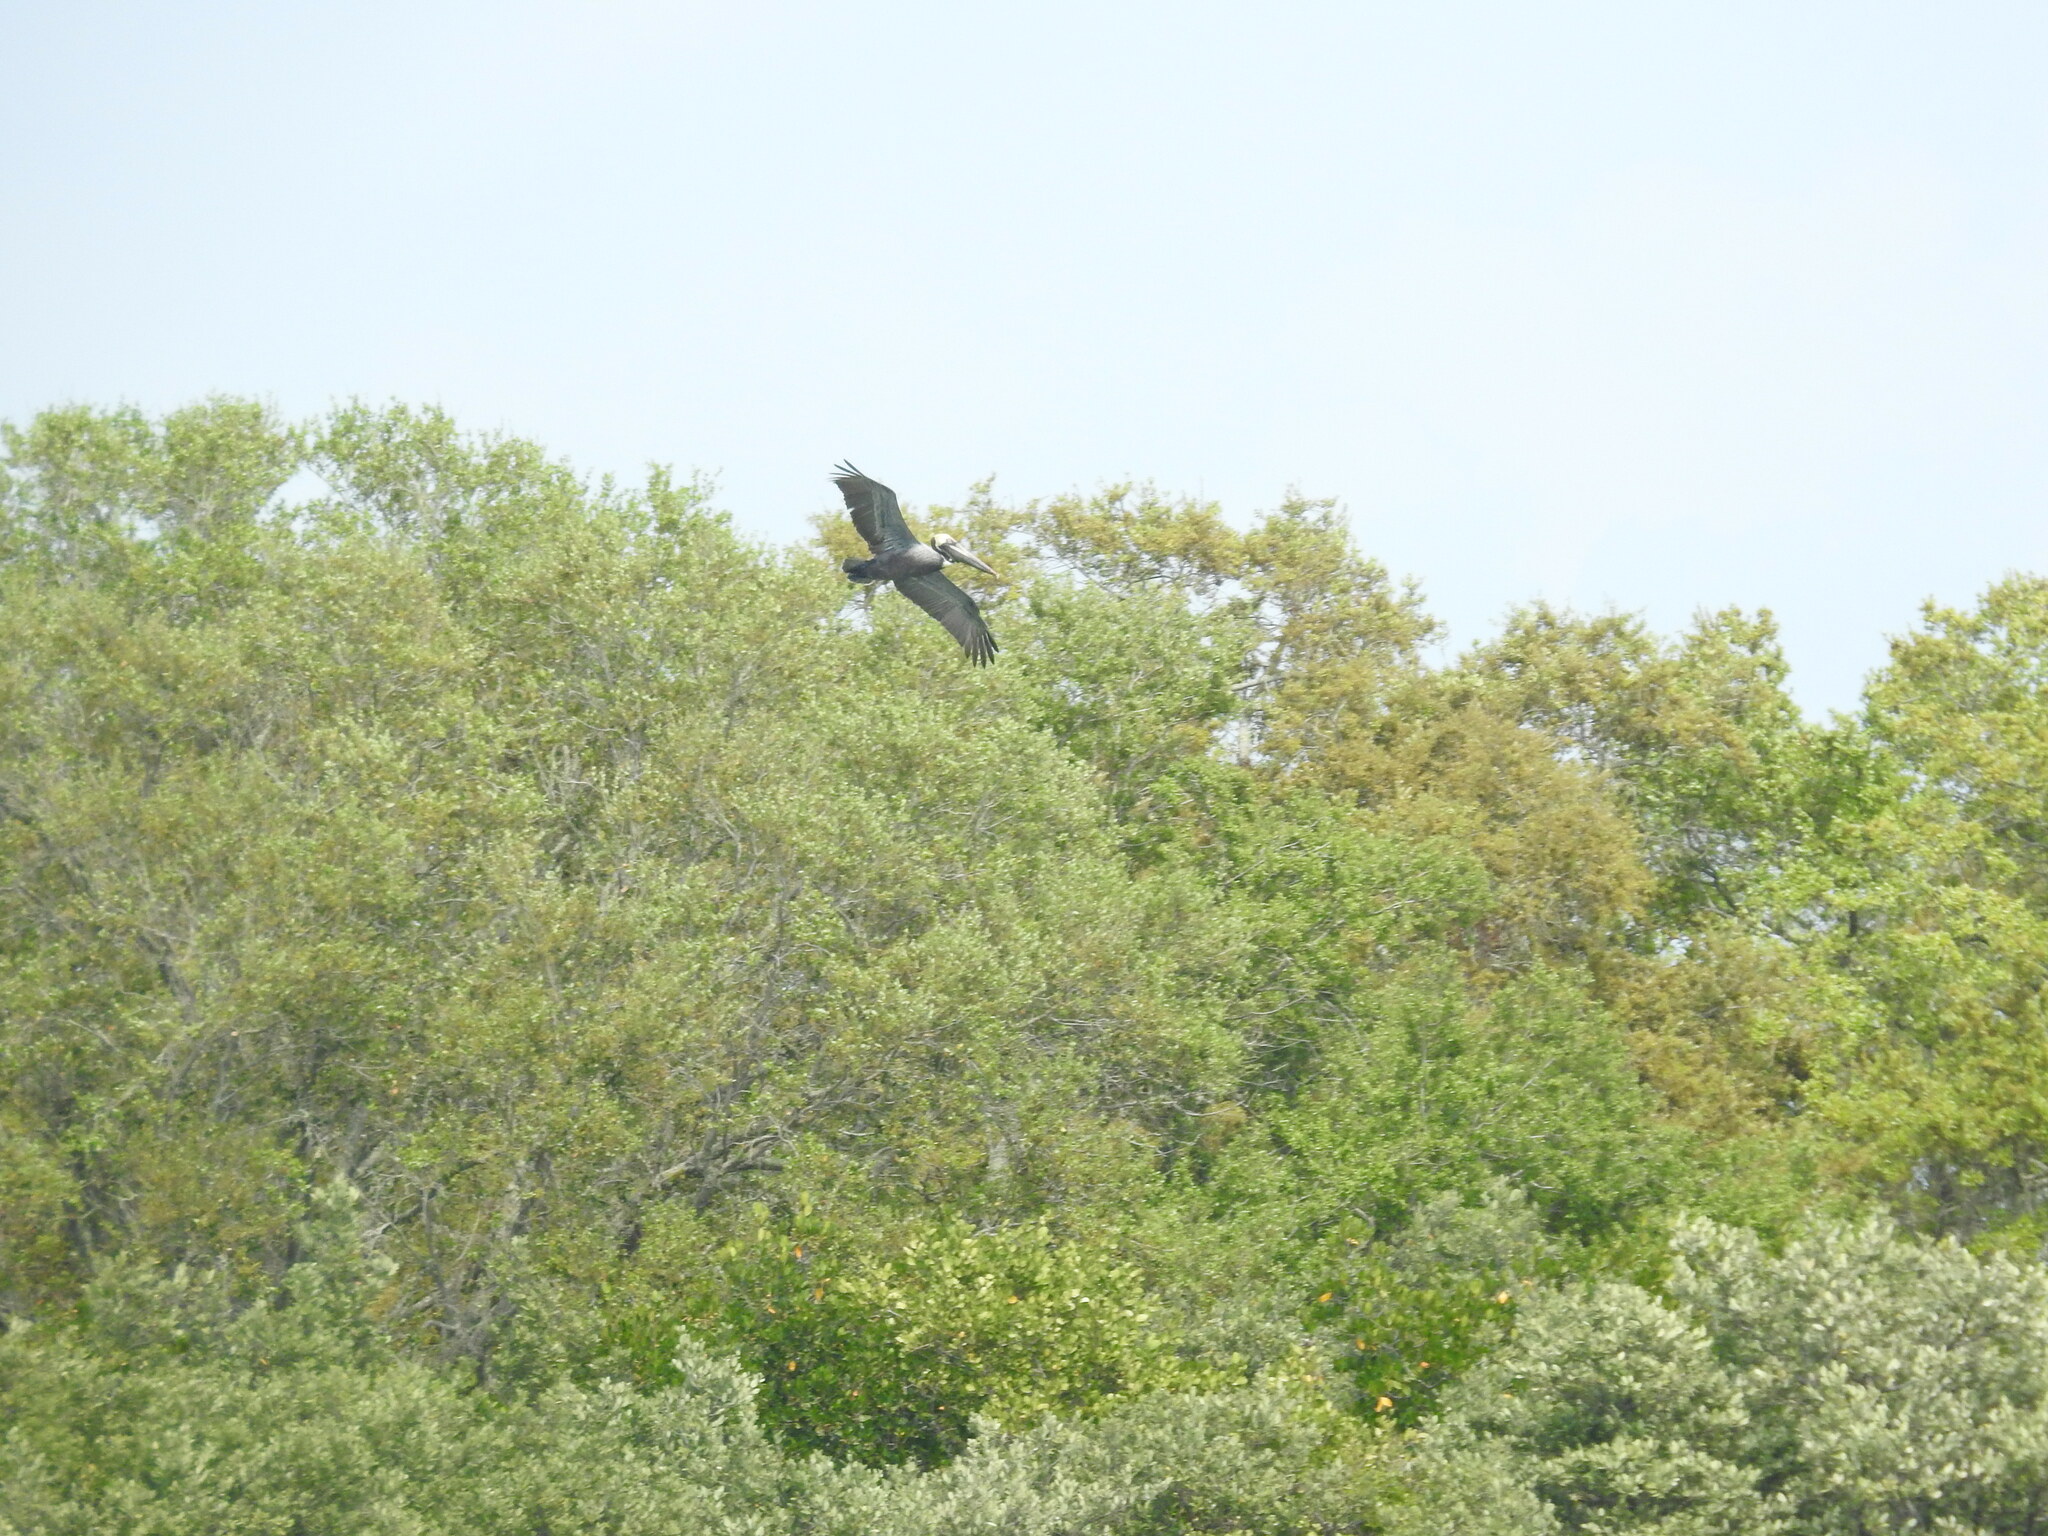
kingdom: Animalia
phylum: Chordata
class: Aves
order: Pelecaniformes
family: Pelecanidae
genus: Pelecanus
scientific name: Pelecanus occidentalis
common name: Brown pelican
